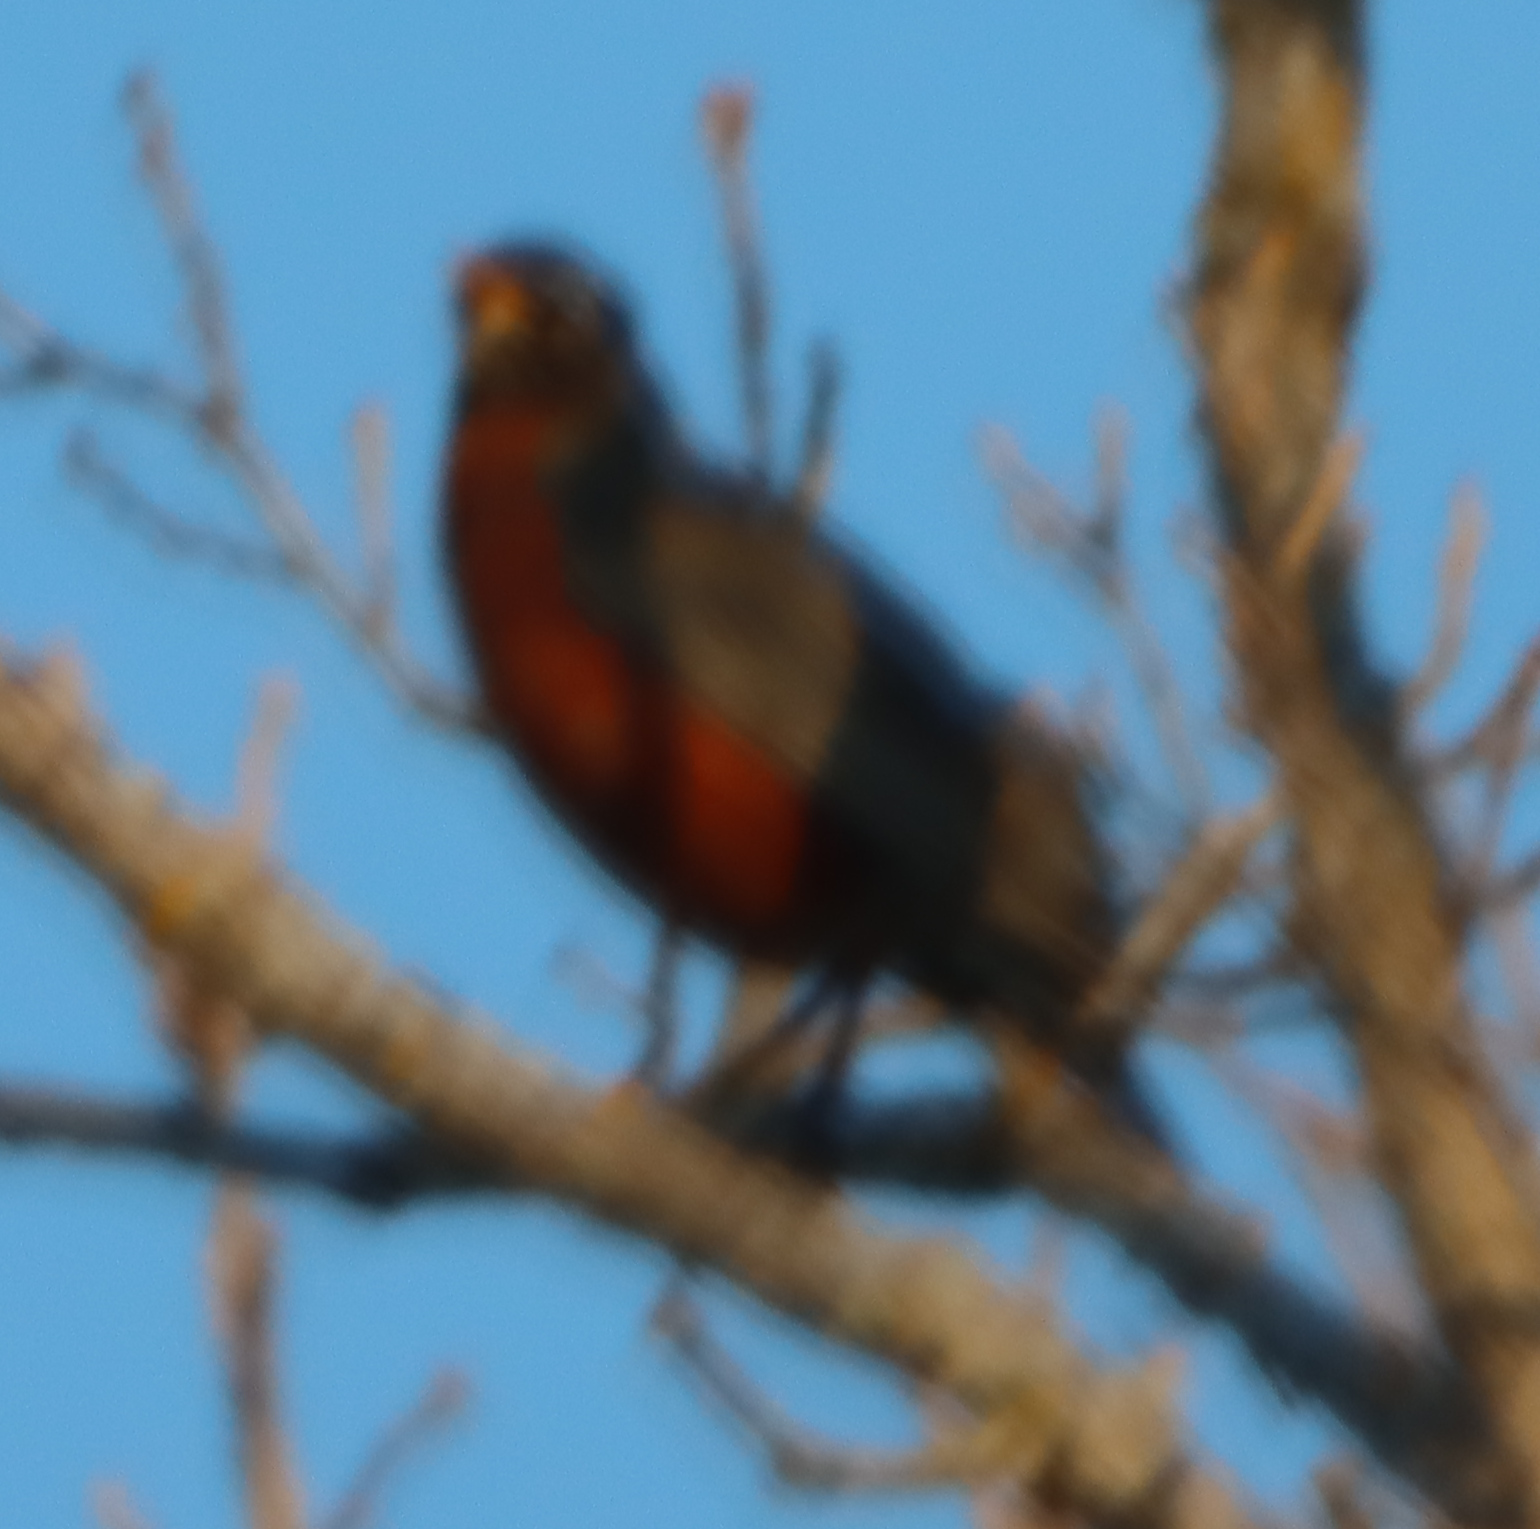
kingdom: Animalia
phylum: Chordata
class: Aves
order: Passeriformes
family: Turdidae
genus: Turdus
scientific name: Turdus migratorius
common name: American robin
